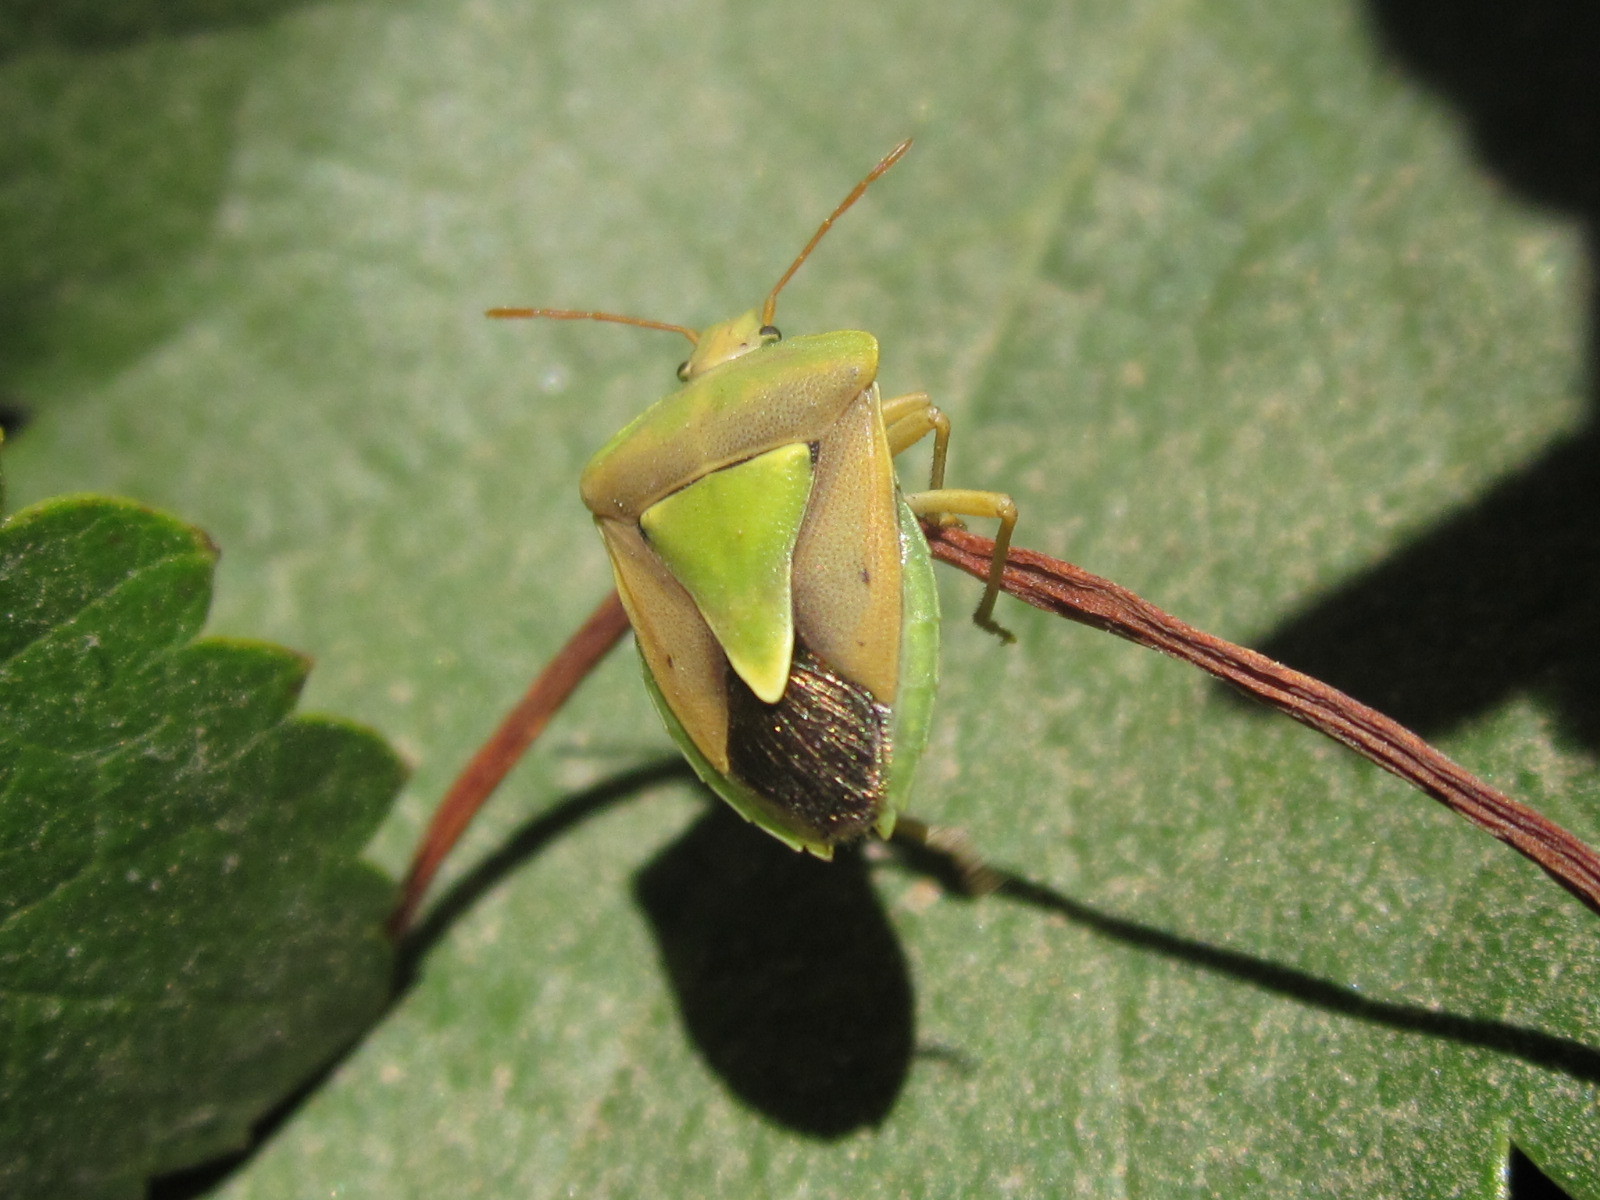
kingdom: Animalia
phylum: Arthropoda
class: Insecta
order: Hemiptera
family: Pentatomidae
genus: Acledra
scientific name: Acledra fraterna
